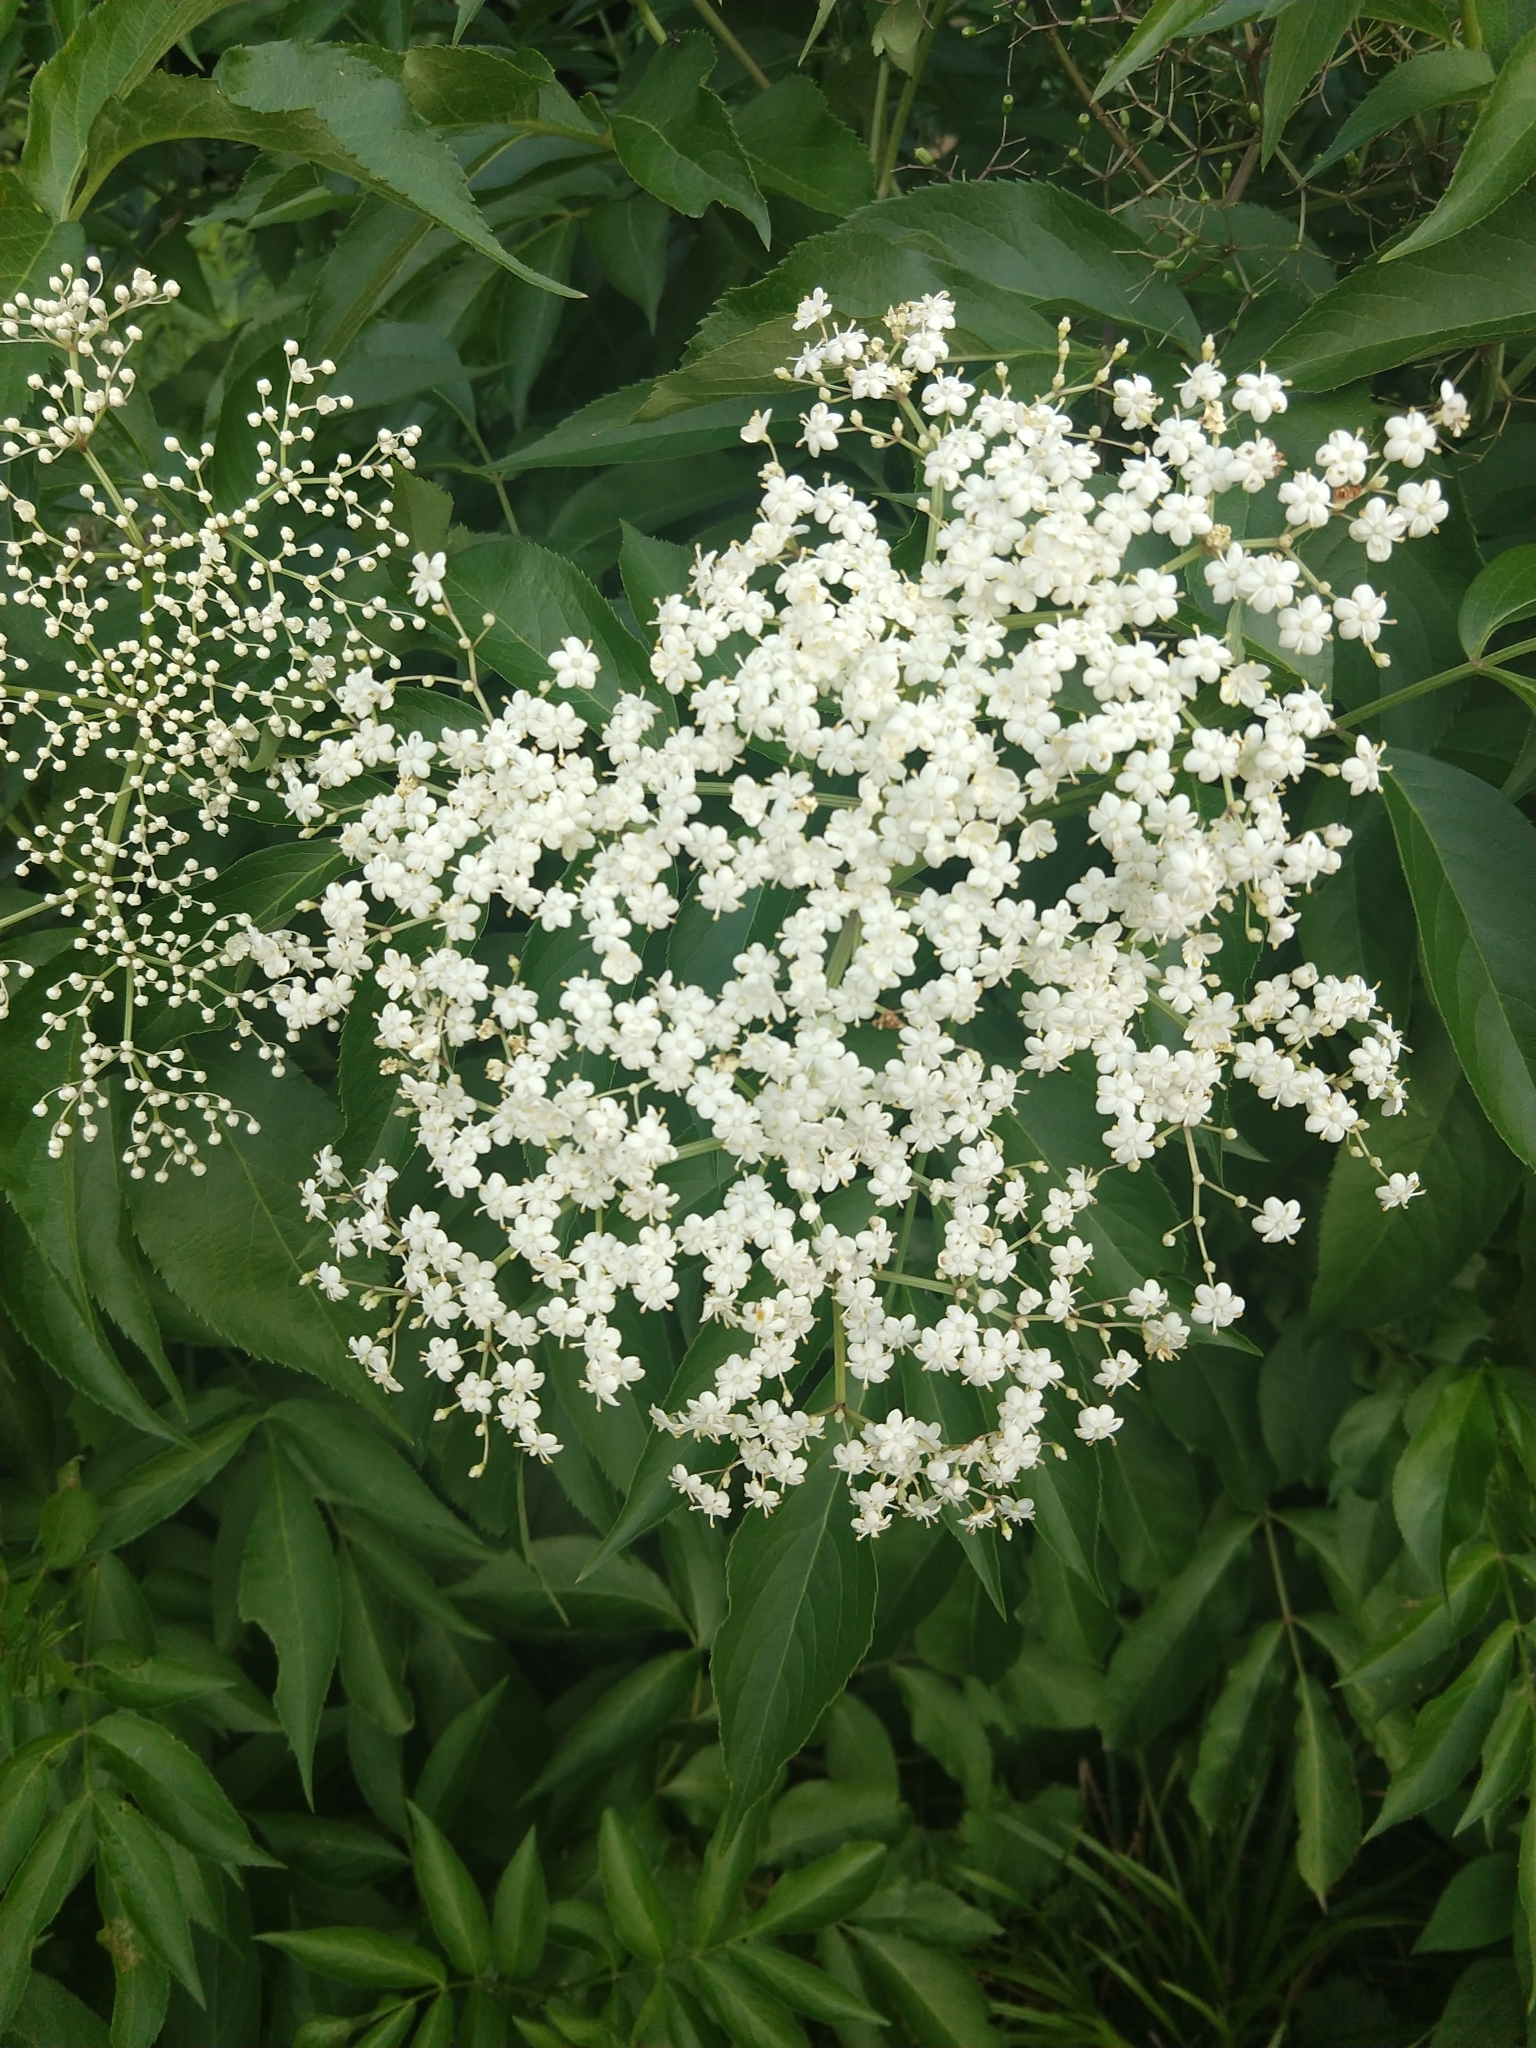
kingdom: Plantae
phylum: Tracheophyta
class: Magnoliopsida
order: Dipsacales
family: Viburnaceae
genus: Sambucus
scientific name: Sambucus canadensis
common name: American elder
